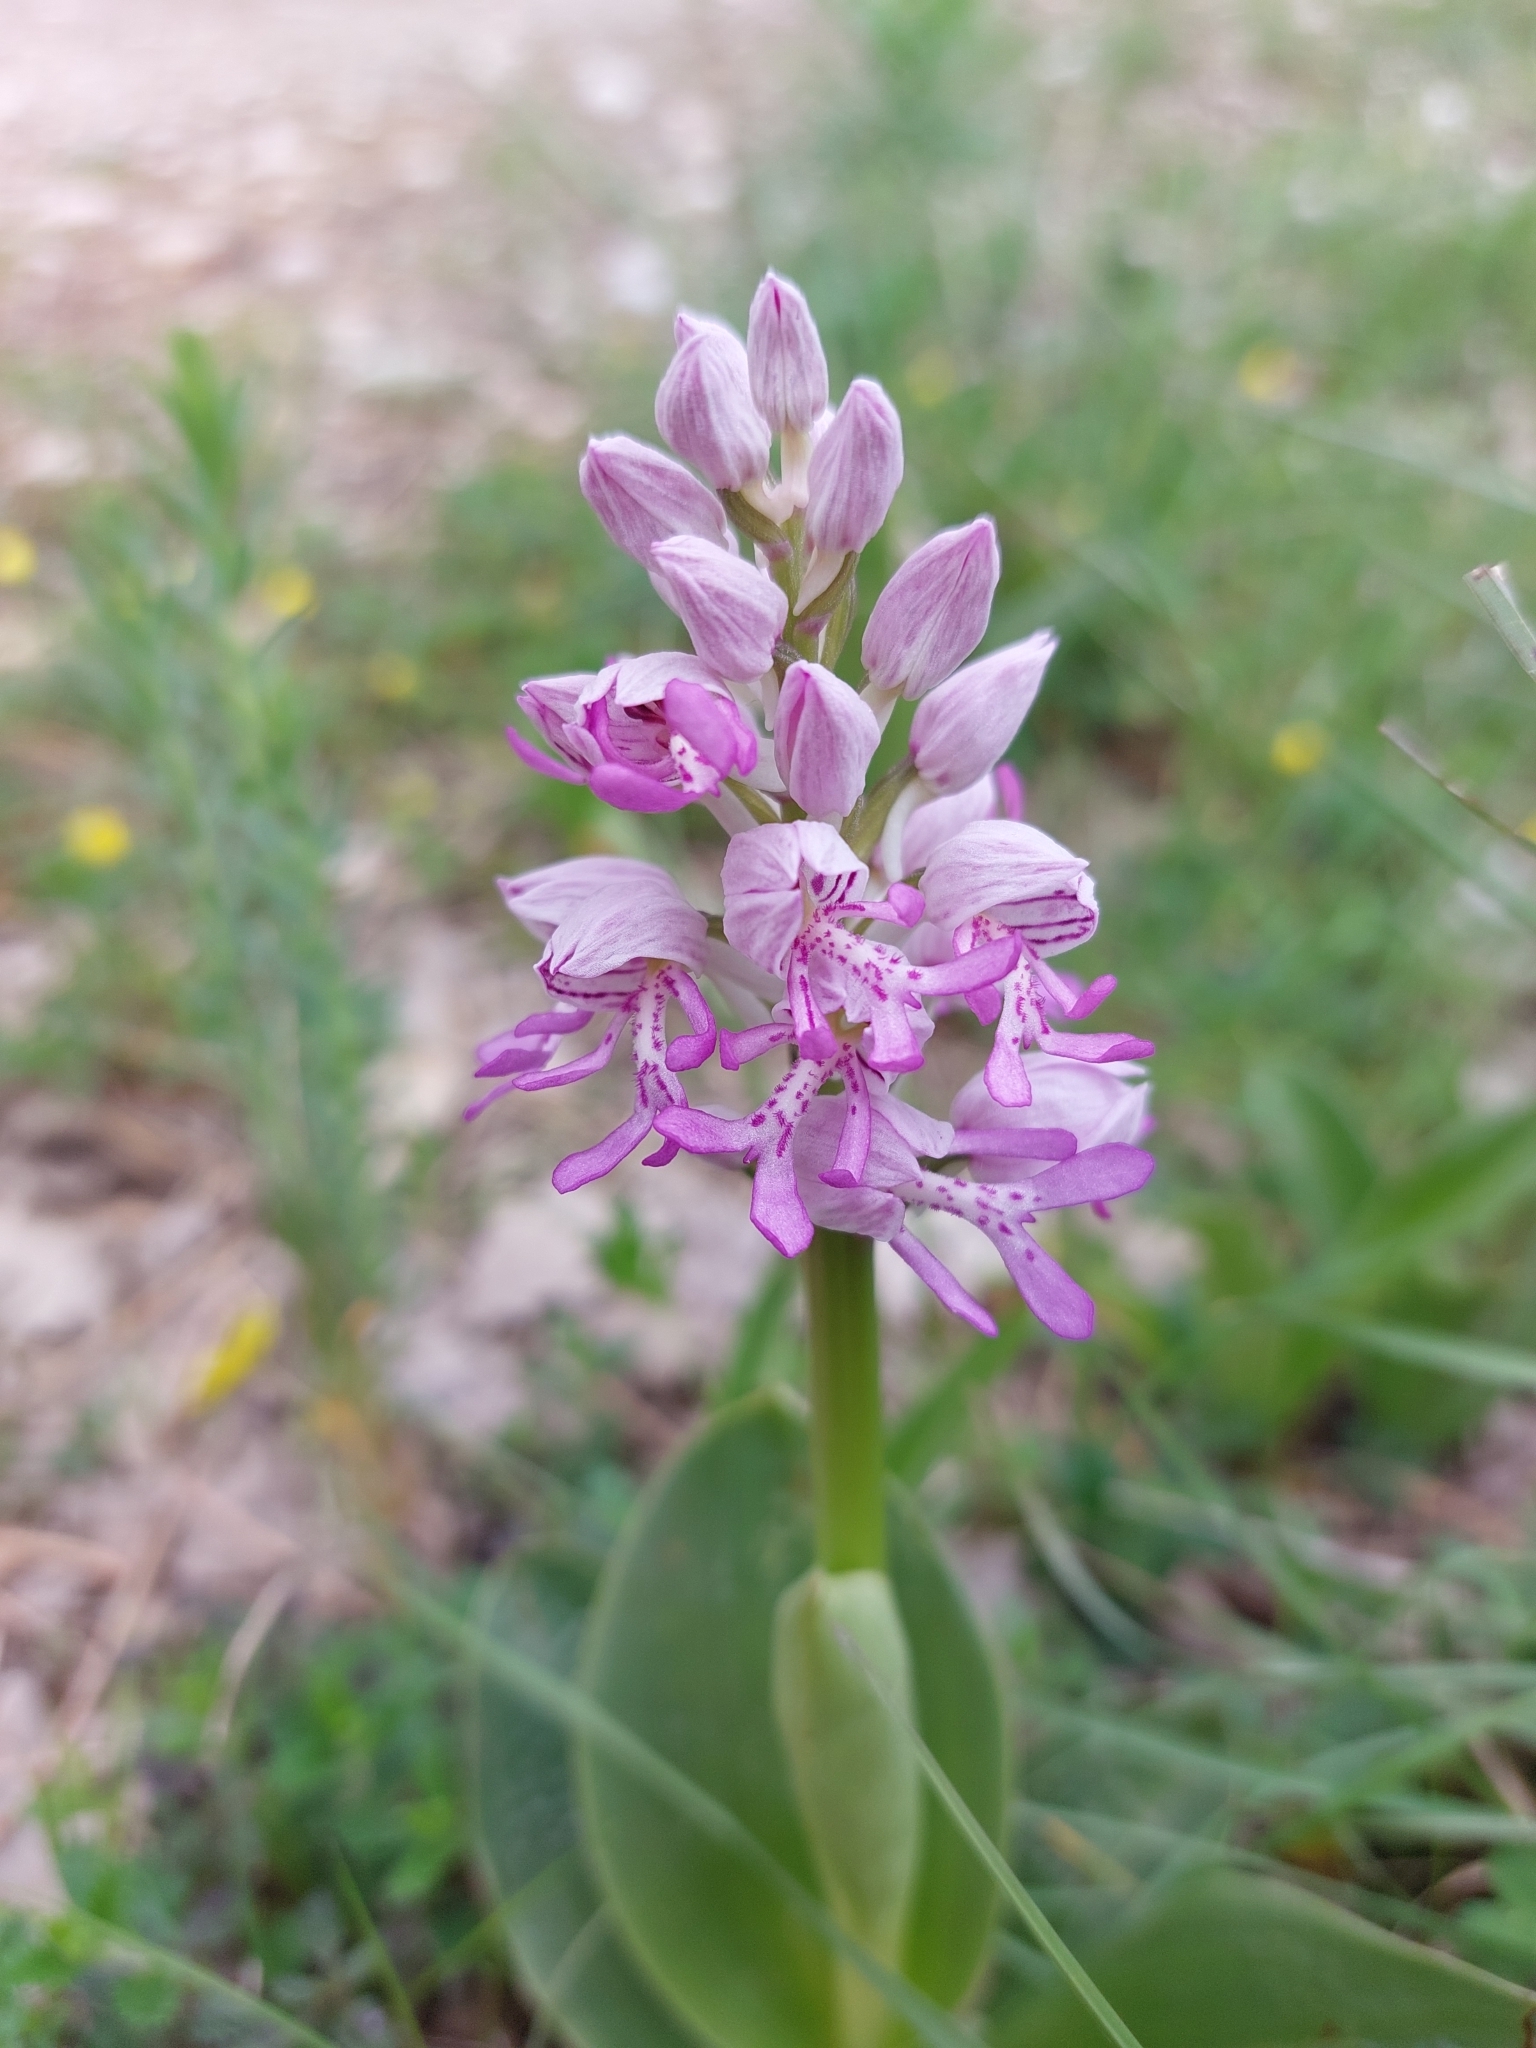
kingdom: Plantae
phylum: Tracheophyta
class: Liliopsida
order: Asparagales
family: Orchidaceae
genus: Orchis
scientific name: Orchis militaris
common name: Military orchid
